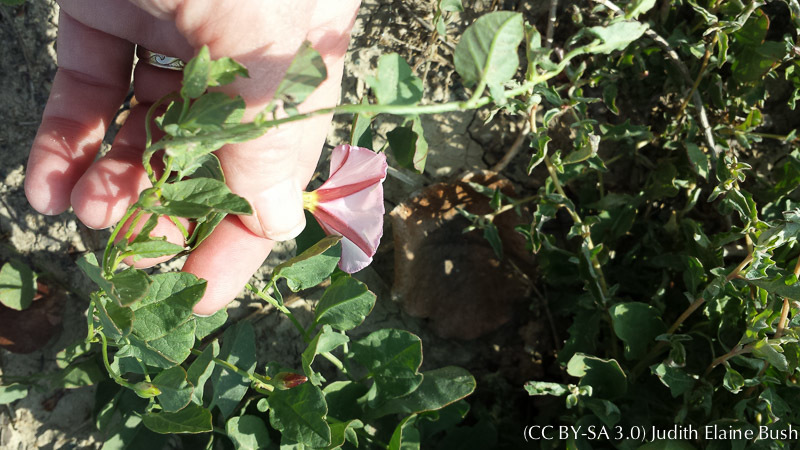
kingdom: Plantae
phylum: Tracheophyta
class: Magnoliopsida
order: Solanales
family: Convolvulaceae
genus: Convolvulus
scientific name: Convolvulus arvensis
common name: Field bindweed
